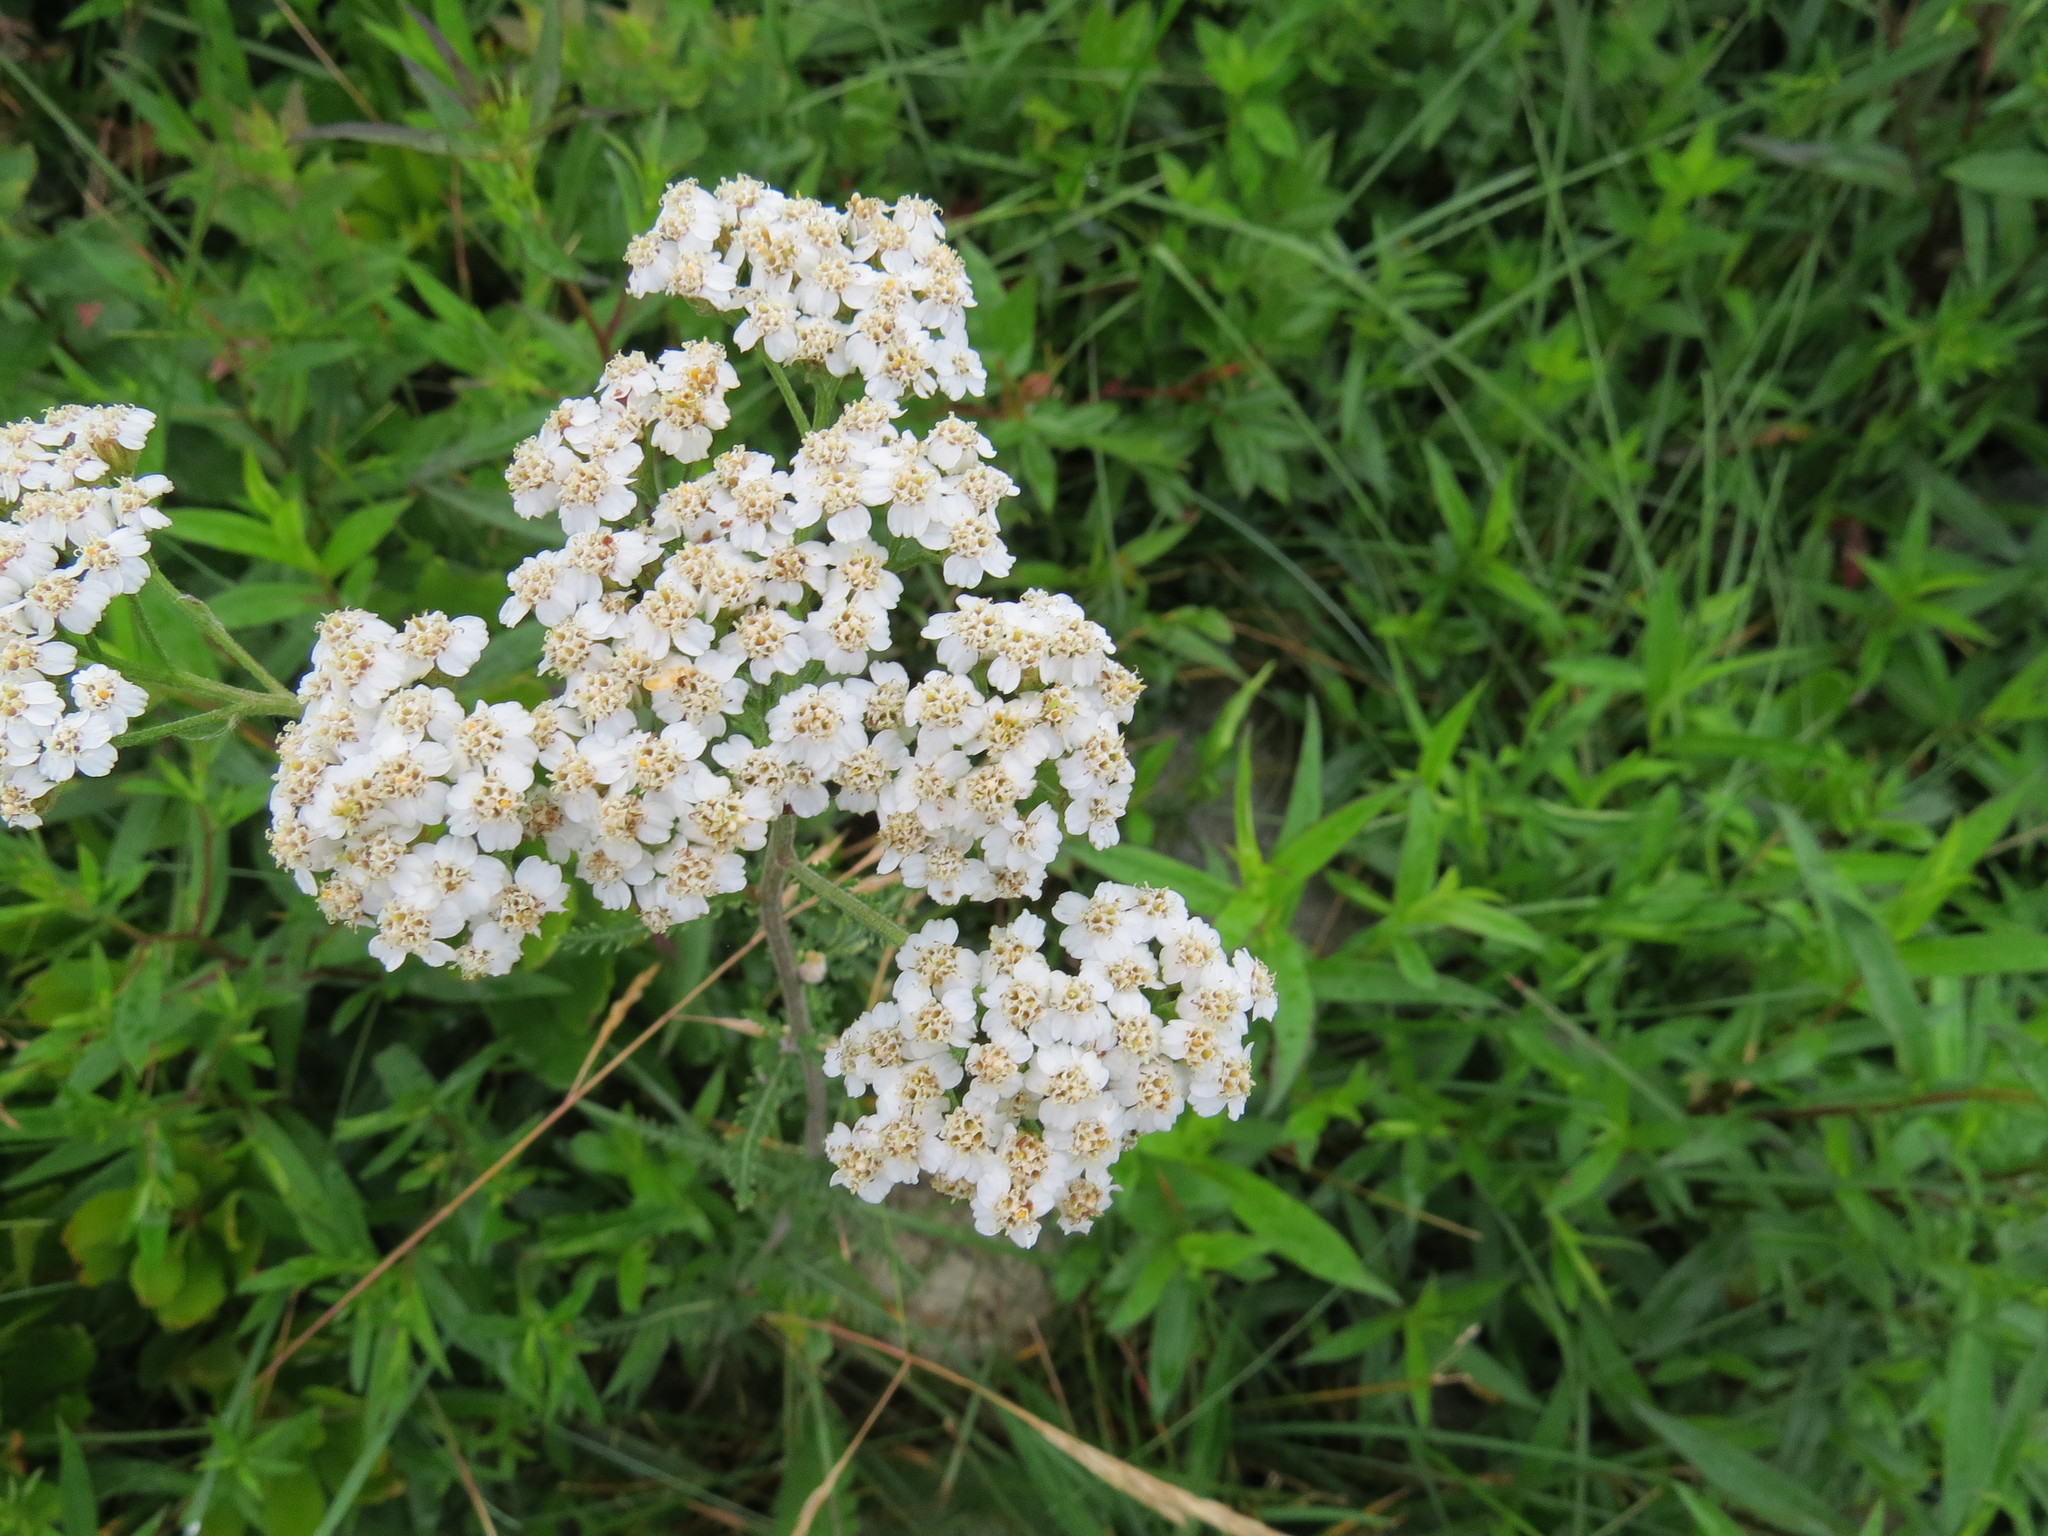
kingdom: Plantae
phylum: Tracheophyta
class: Magnoliopsida
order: Asterales
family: Asteraceae
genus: Achillea
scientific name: Achillea millefolium
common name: Yarrow
